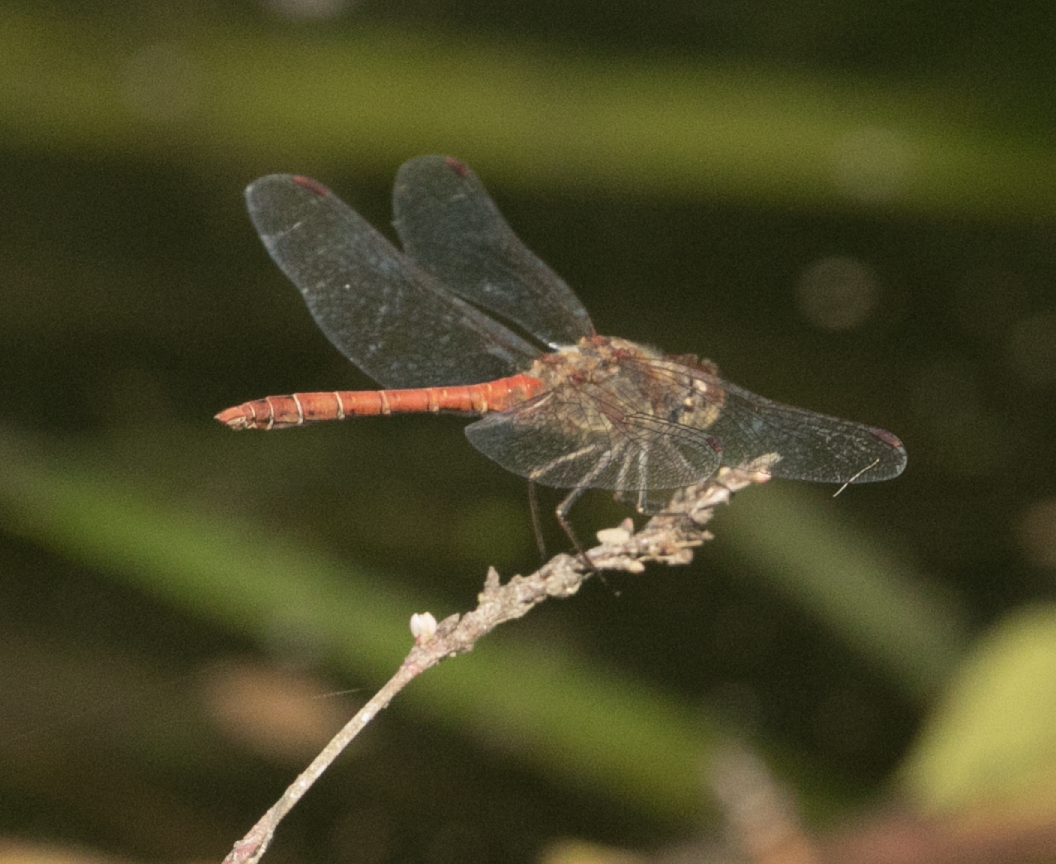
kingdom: Animalia
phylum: Arthropoda
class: Insecta
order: Odonata
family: Libellulidae
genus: Sympetrum
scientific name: Sympetrum striolatum
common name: Common darter
